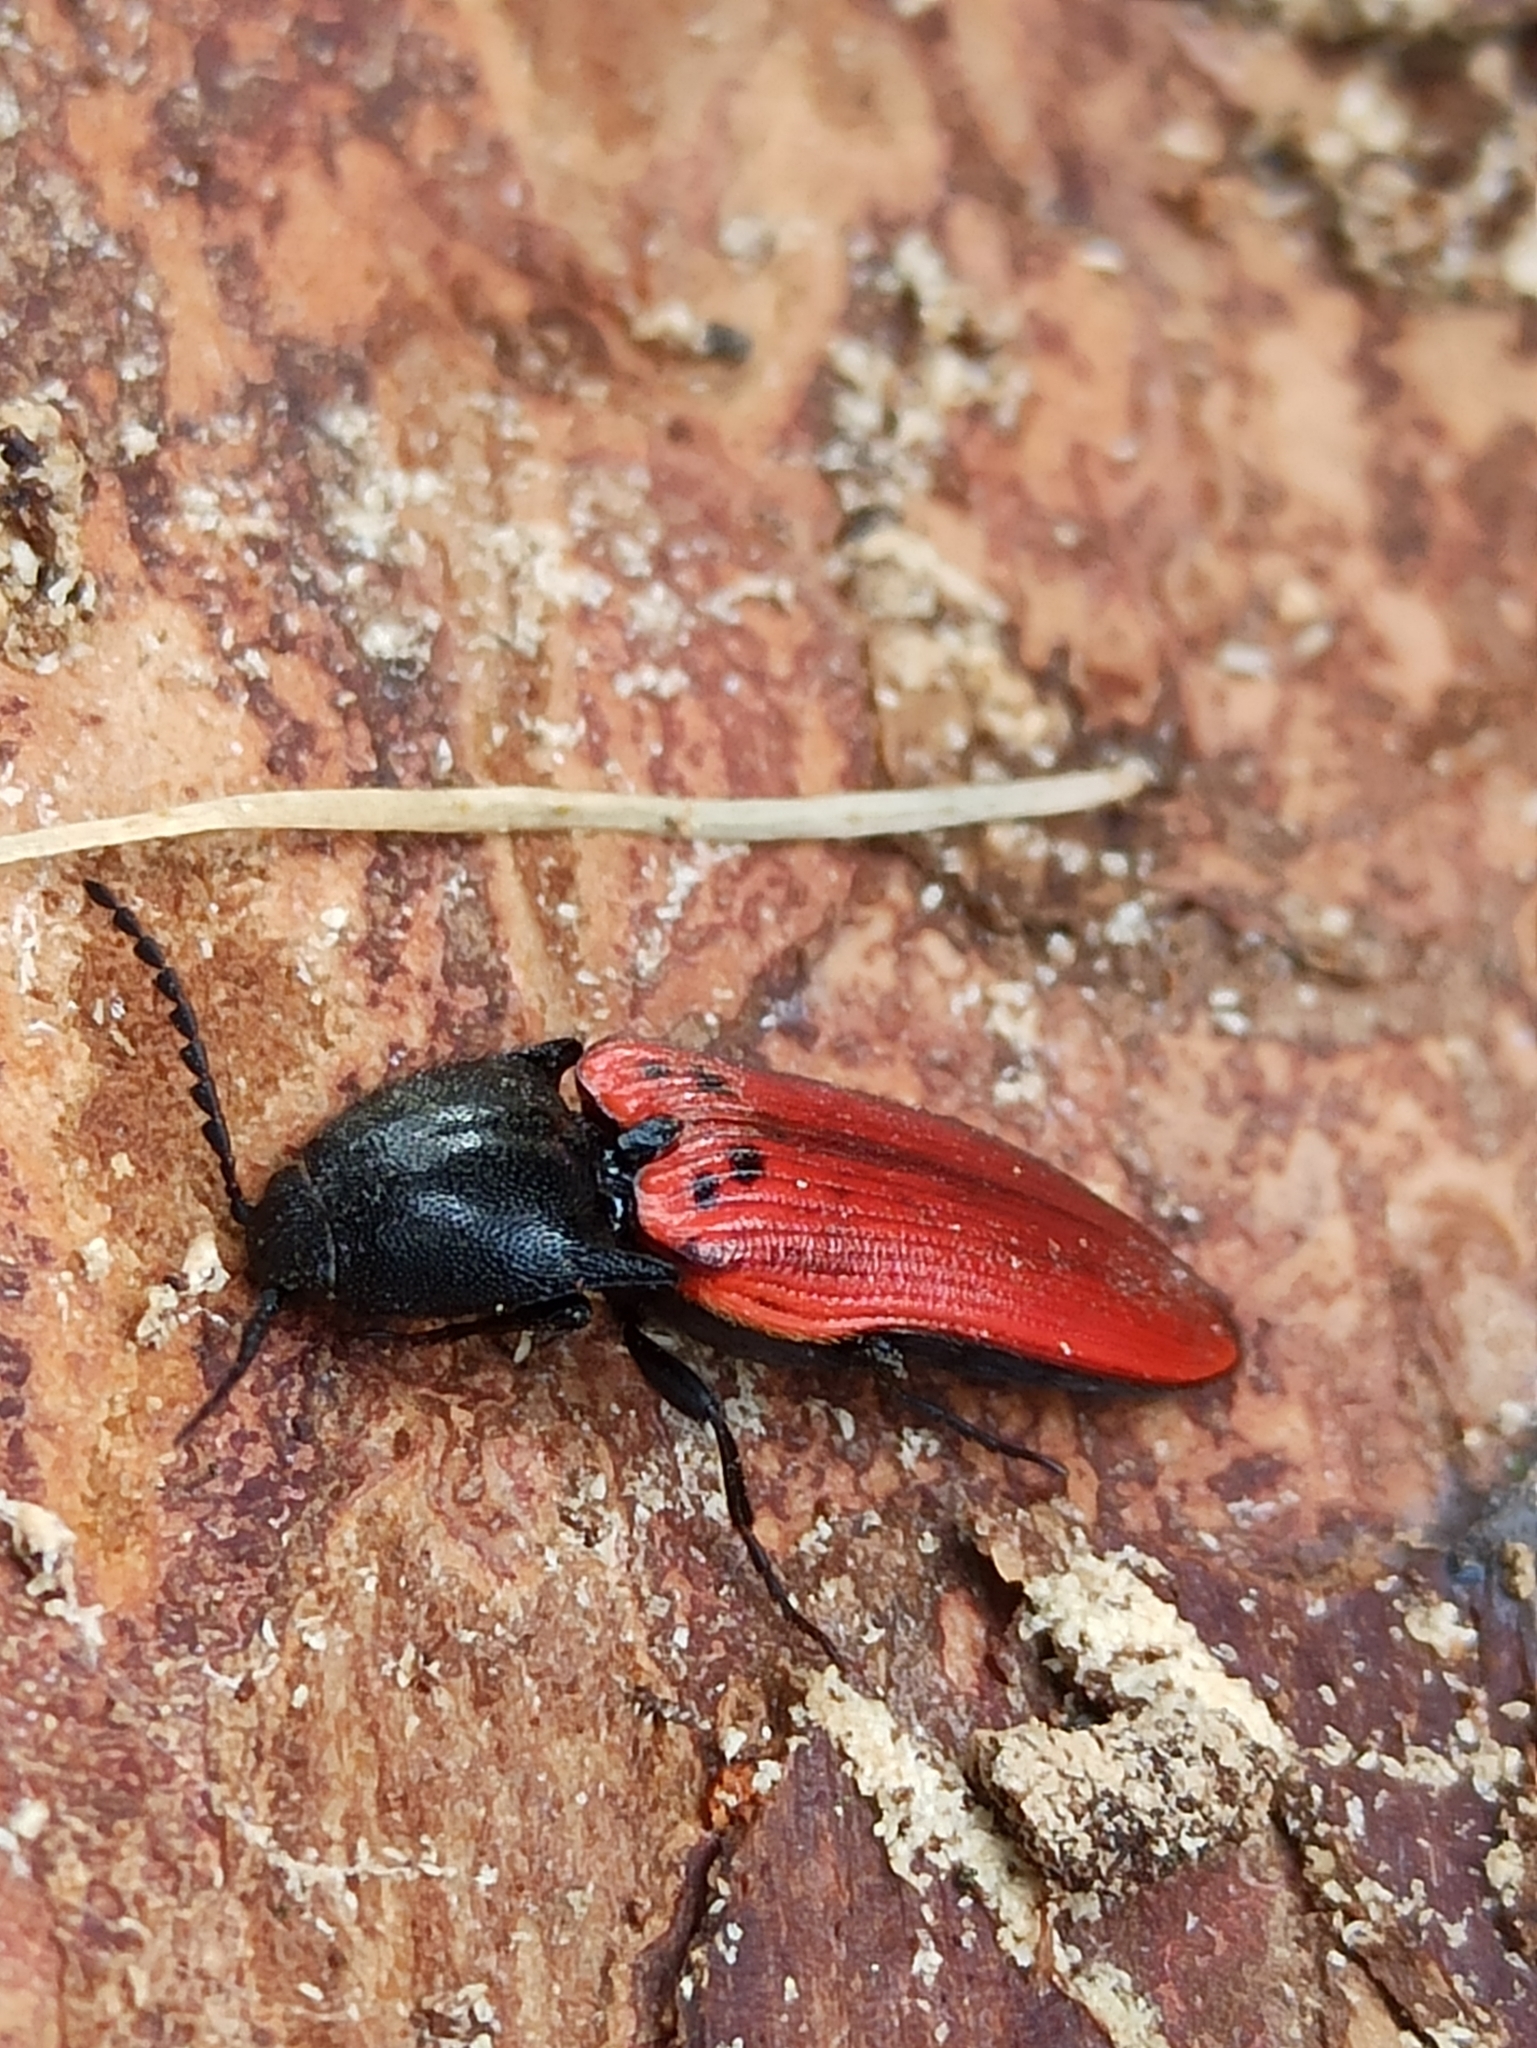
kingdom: Animalia
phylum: Arthropoda
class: Insecta
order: Coleoptera
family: Elateridae
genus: Ampedus
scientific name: Ampedus sanguineus
